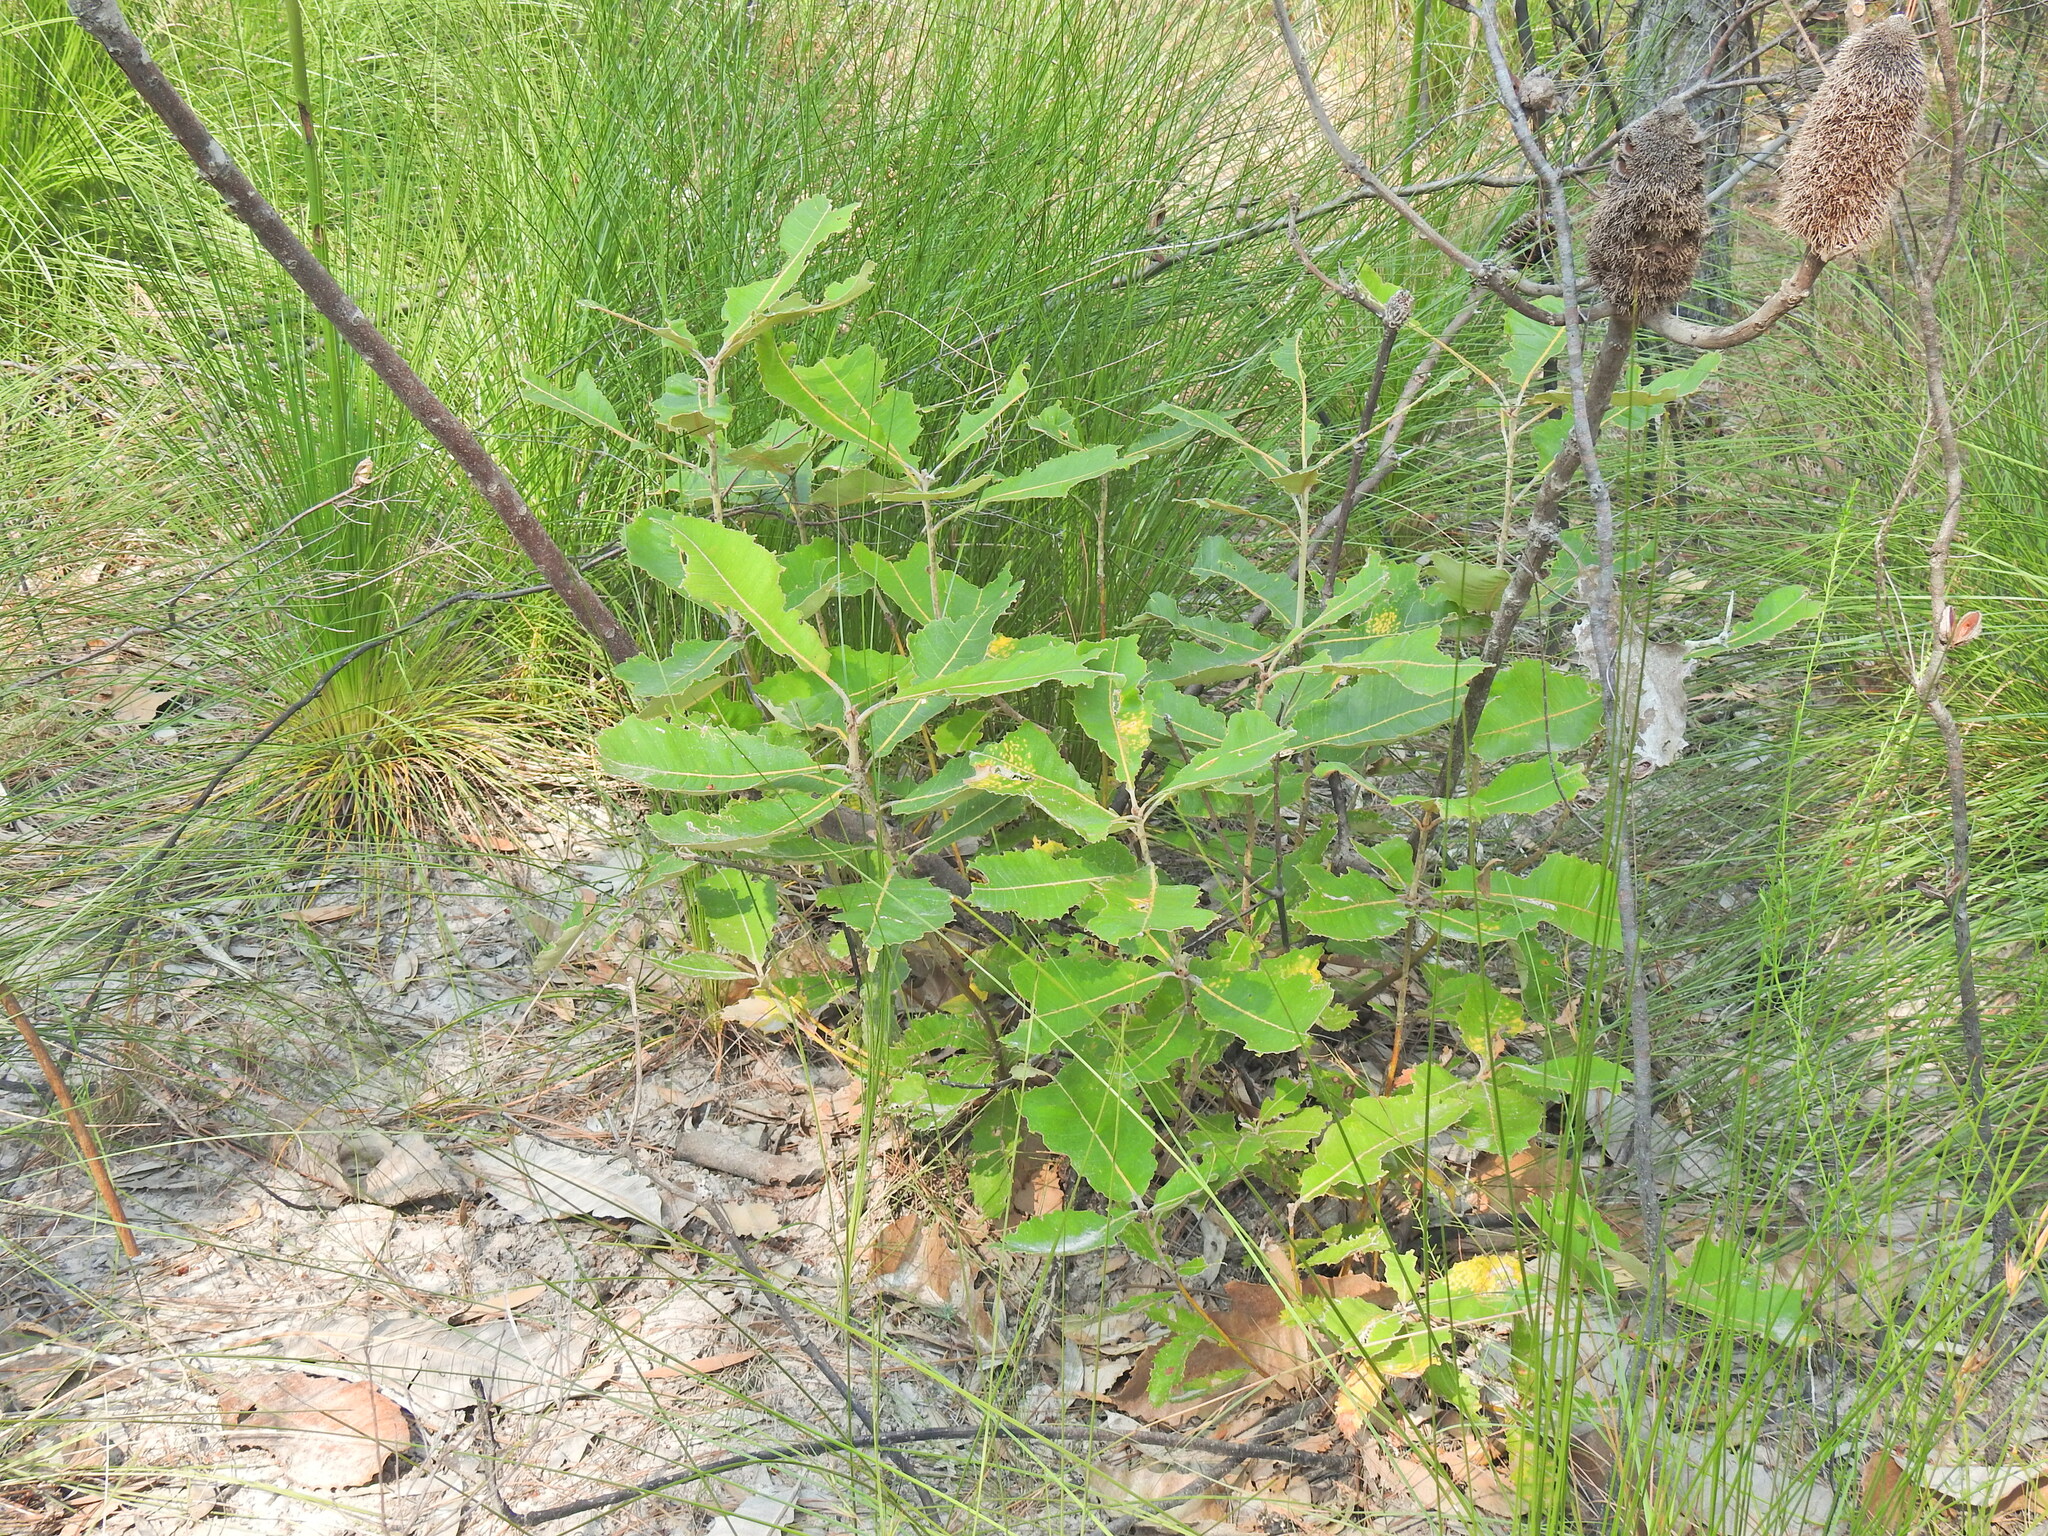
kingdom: Plantae
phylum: Tracheophyta
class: Magnoliopsida
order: Proteales
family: Proteaceae
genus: Banksia
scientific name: Banksia robur
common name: Broadleaf banksia
